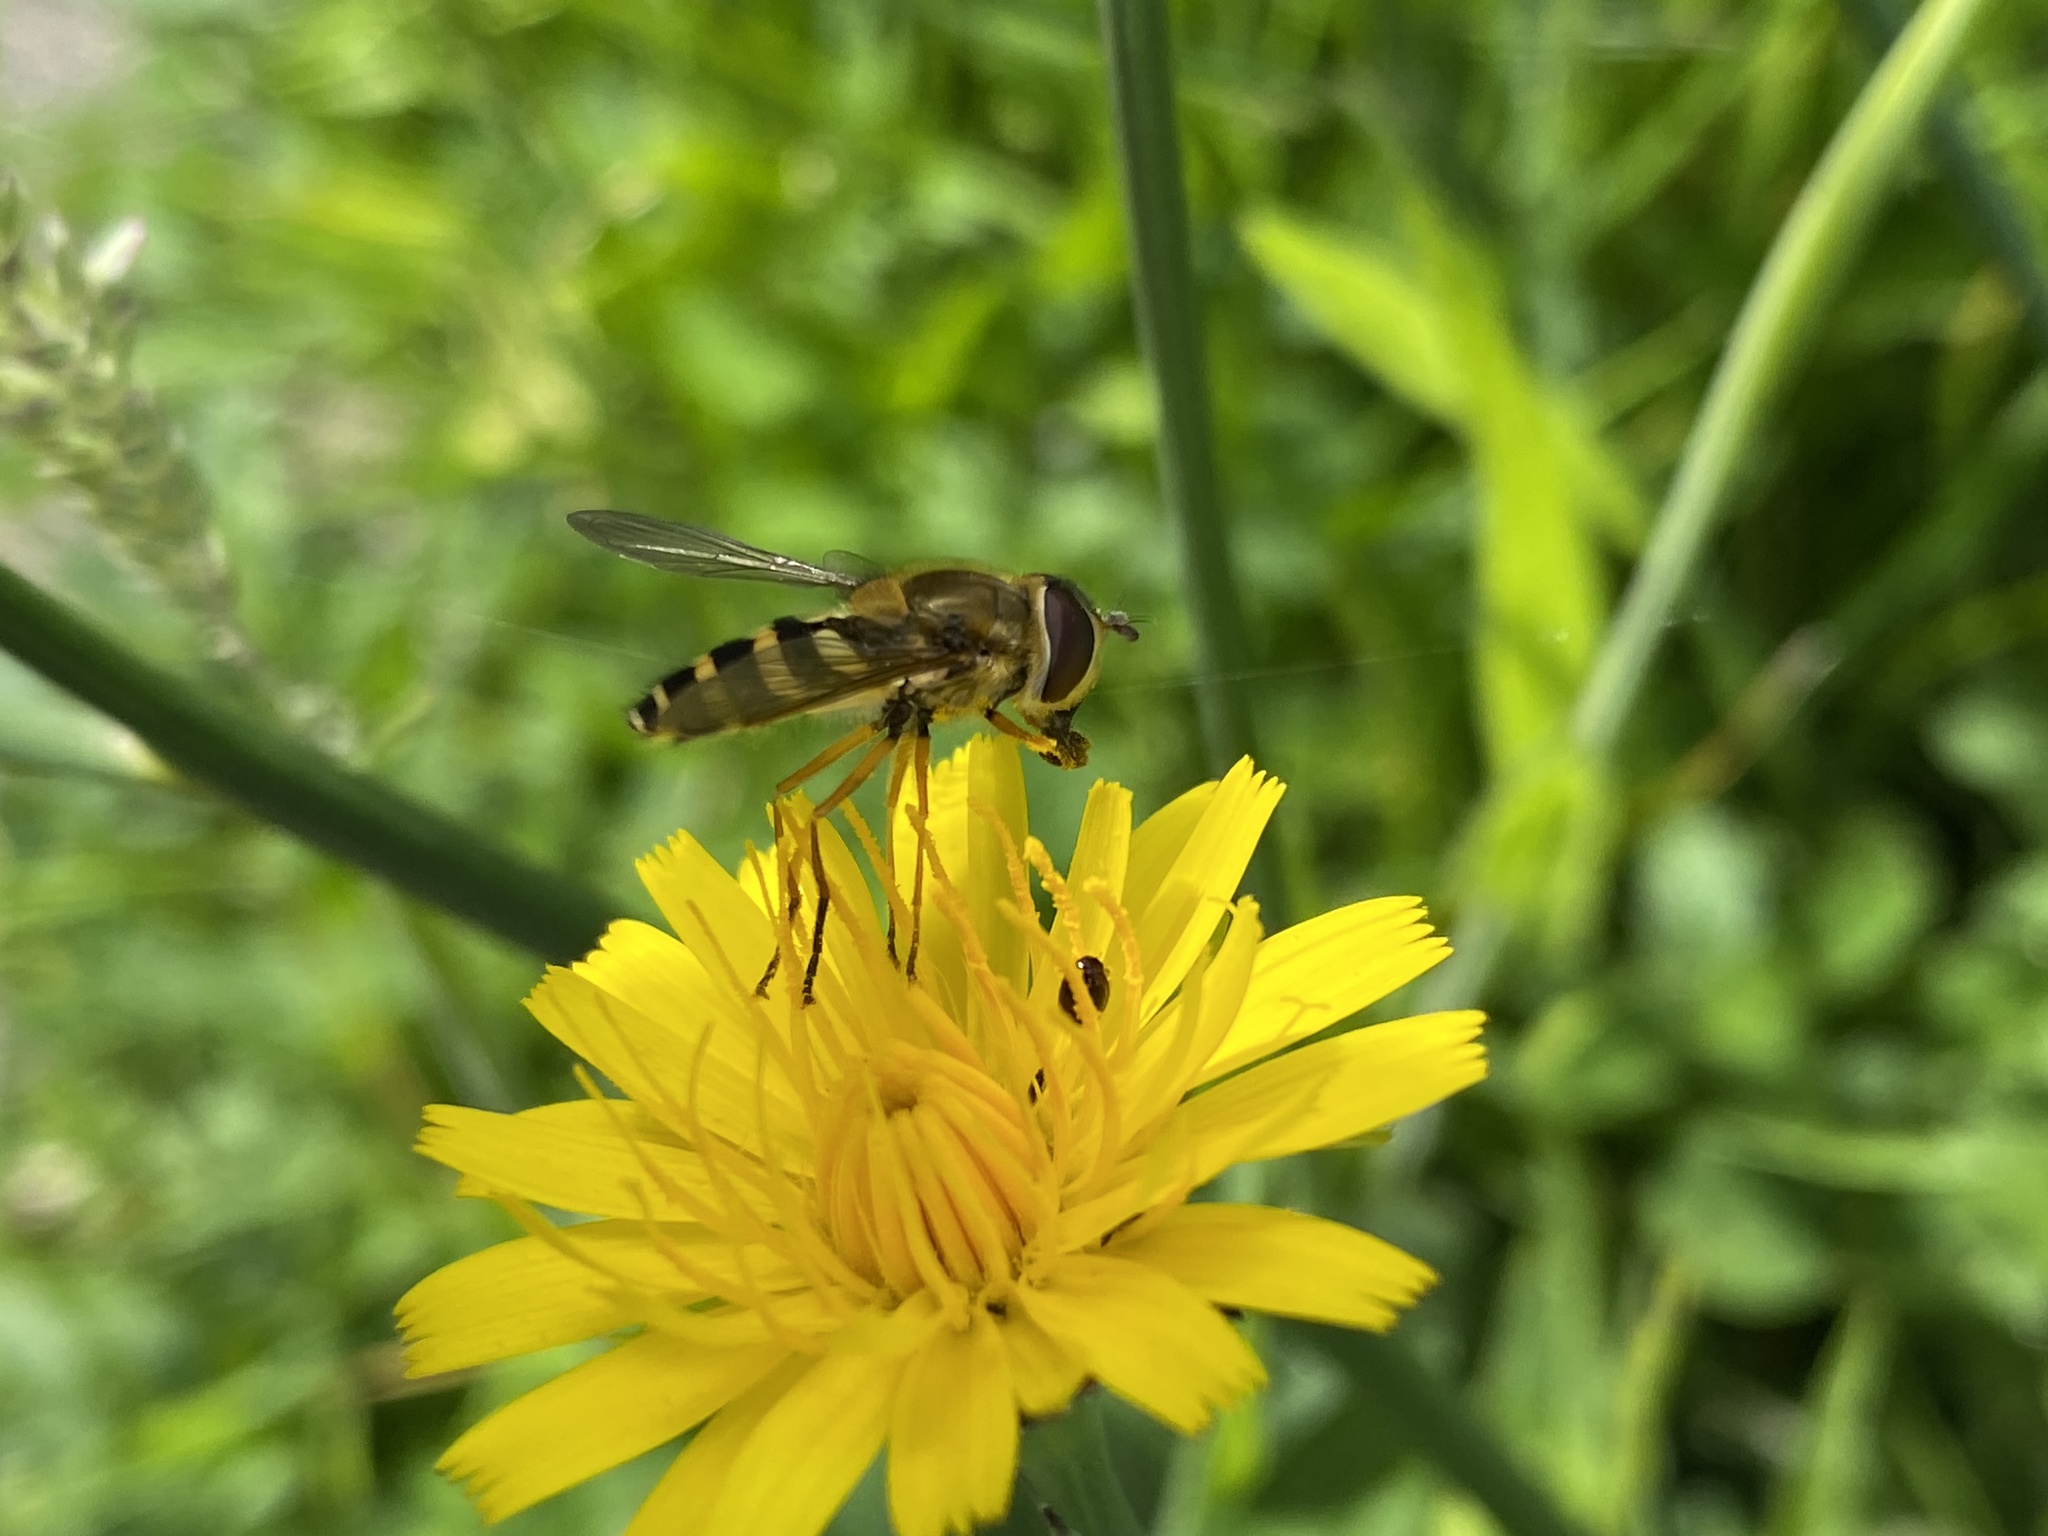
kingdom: Animalia
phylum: Arthropoda
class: Insecta
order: Diptera
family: Syrphidae
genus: Syrphus
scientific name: Syrphus ribesii
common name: Common flower fly
